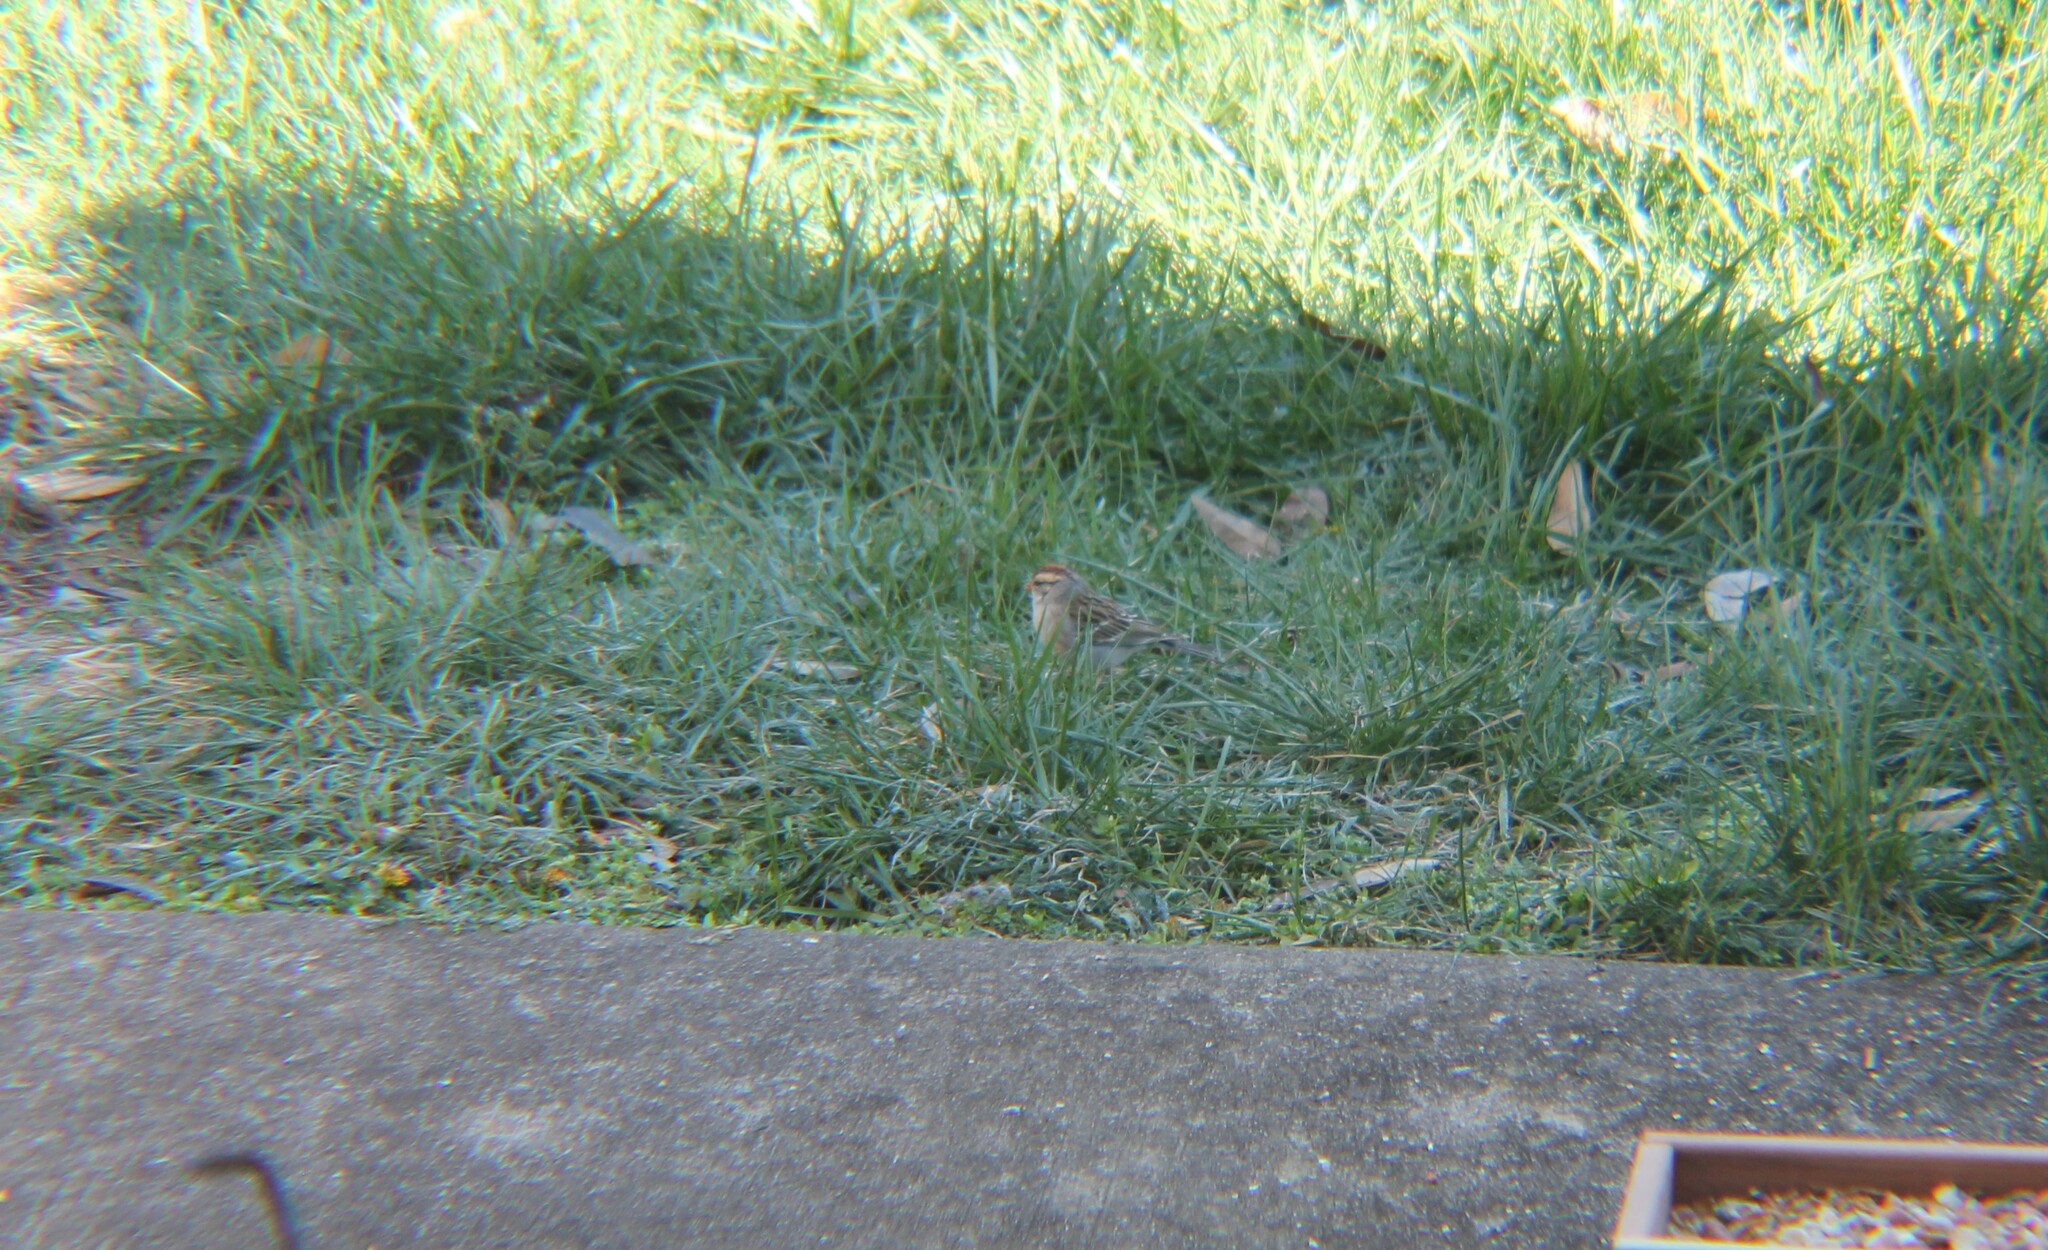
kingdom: Animalia
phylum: Chordata
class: Aves
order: Passeriformes
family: Passerellidae
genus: Spizella
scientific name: Spizella passerina
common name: Chipping sparrow
